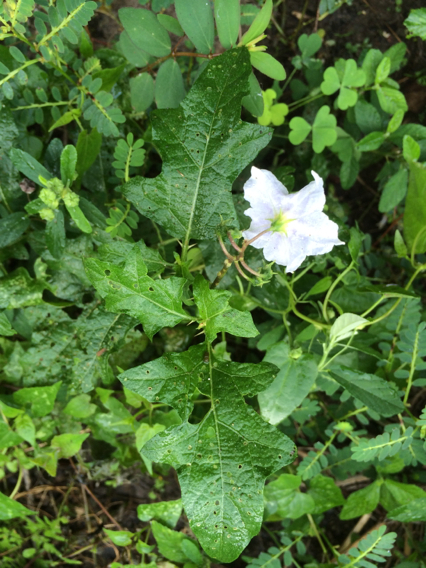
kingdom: Plantae
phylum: Tracheophyta
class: Magnoliopsida
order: Solanales
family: Solanaceae
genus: Solanum
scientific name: Solanum carolinense
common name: Horse-nettle
